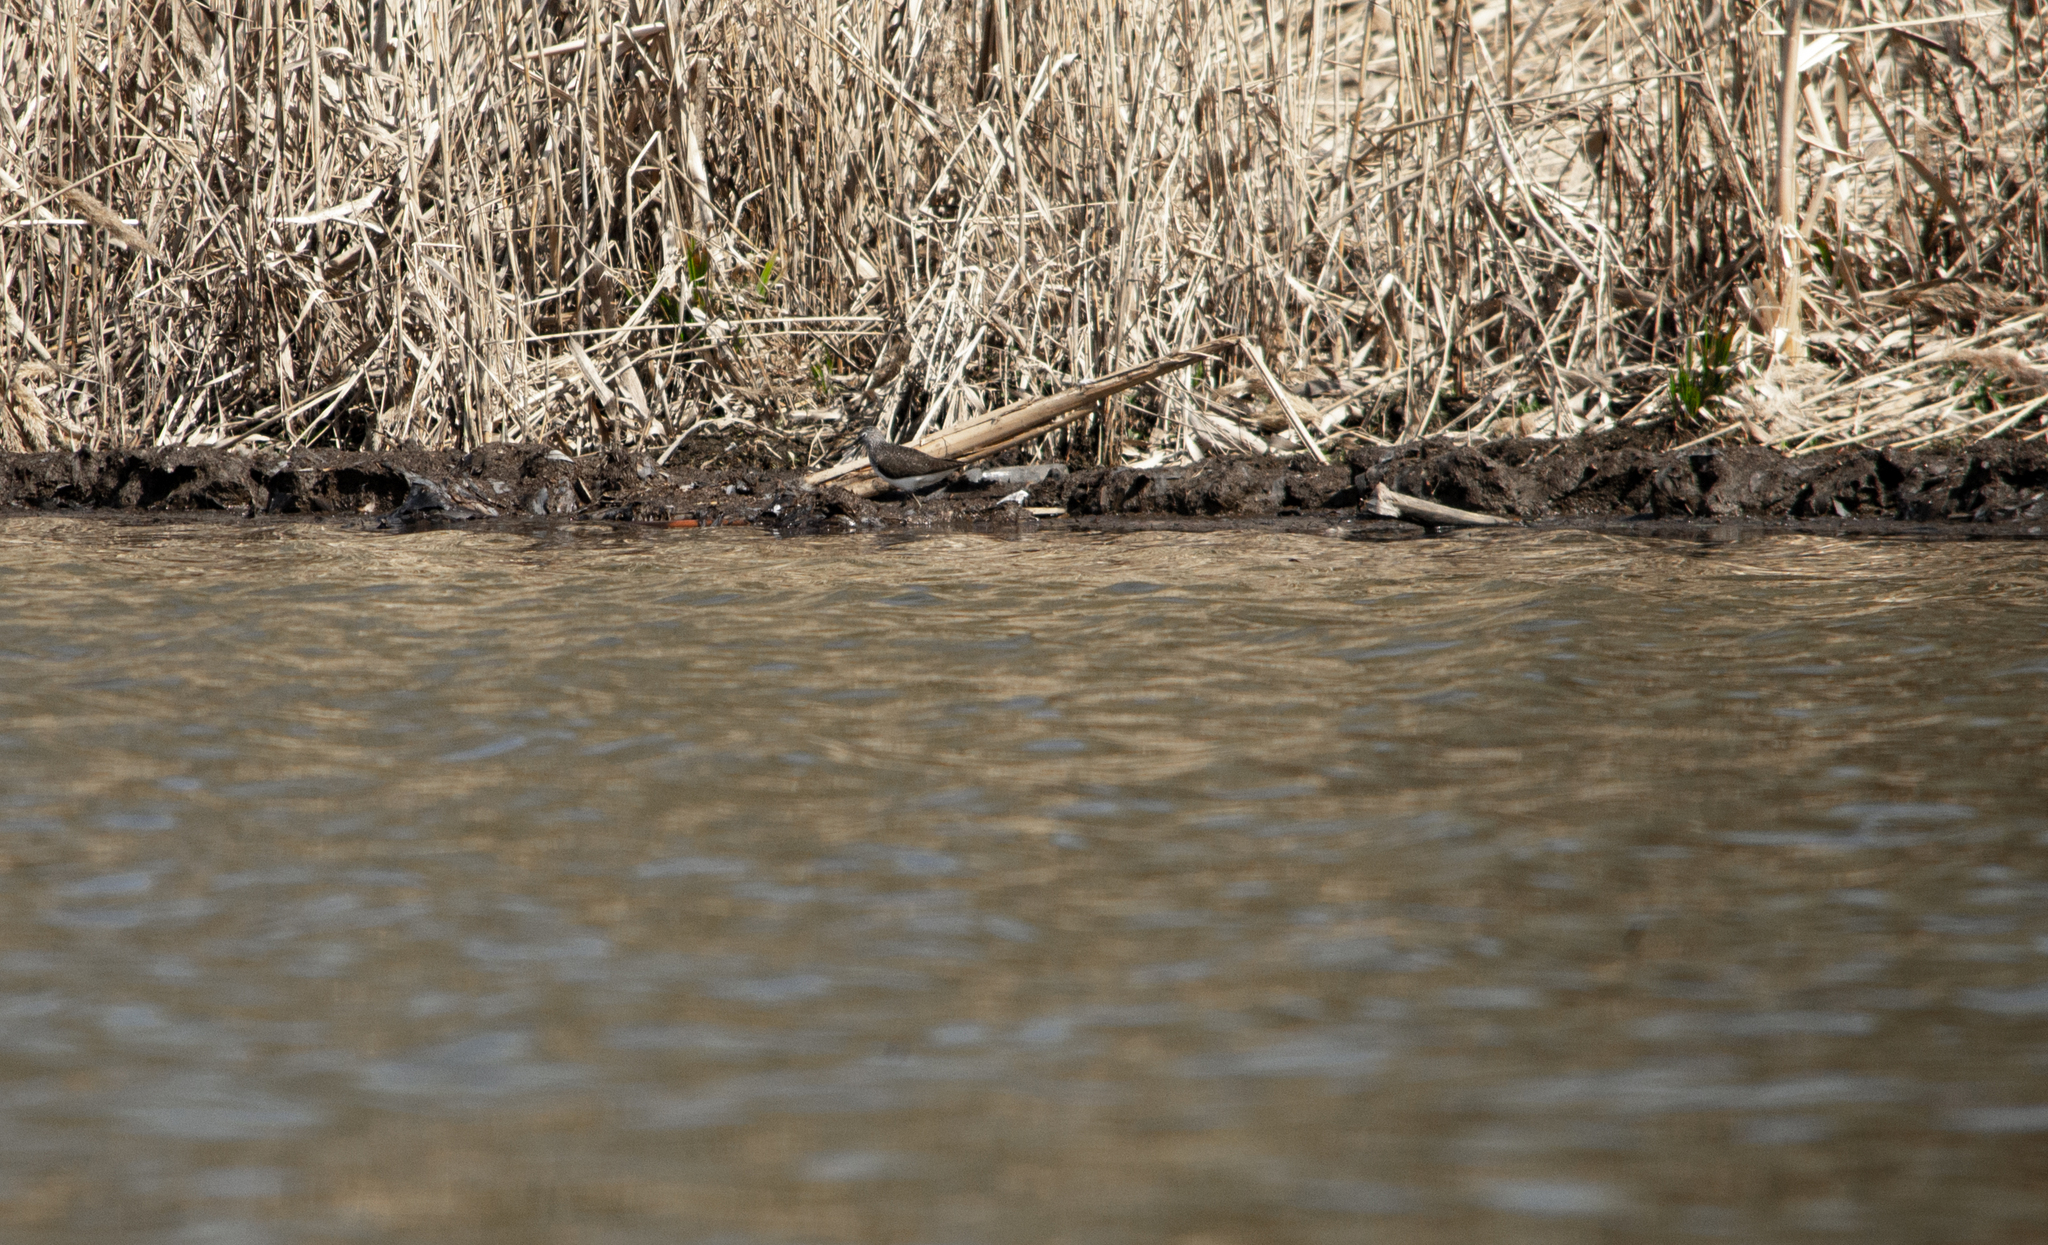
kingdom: Animalia
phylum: Chordata
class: Aves
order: Charadriiformes
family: Scolopacidae
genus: Tringa
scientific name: Tringa ochropus
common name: Green sandpiper
